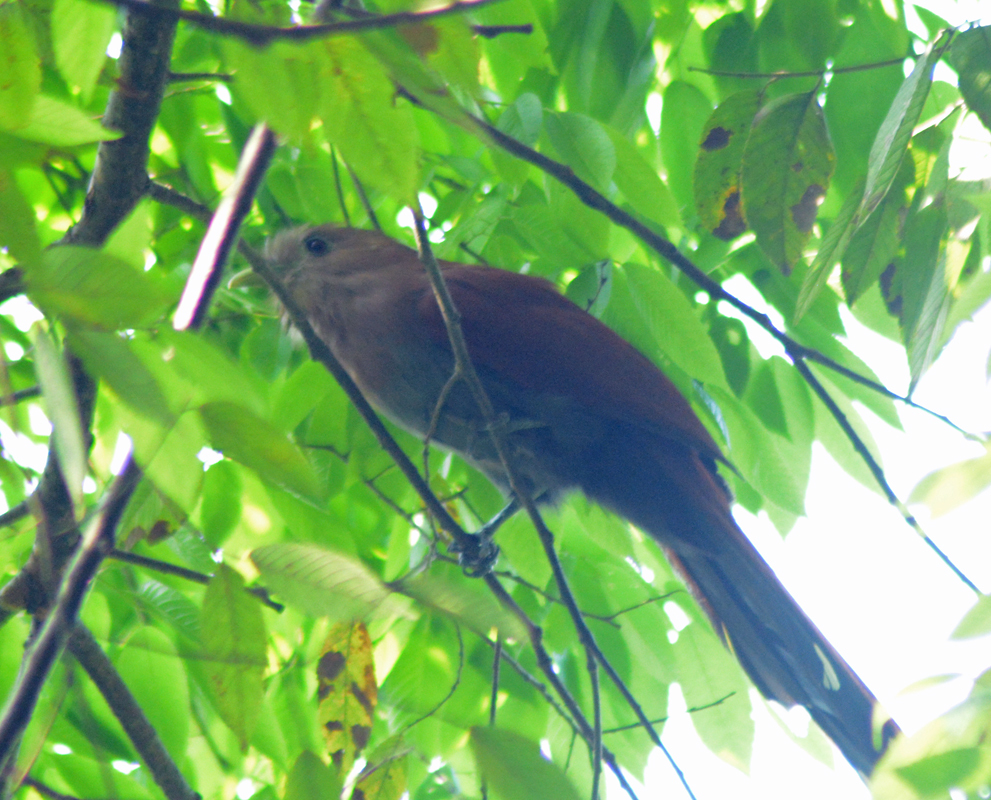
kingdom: Animalia
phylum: Chordata
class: Aves
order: Cuculiformes
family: Cuculidae
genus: Piaya
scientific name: Piaya cayana
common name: Squirrel cuckoo
